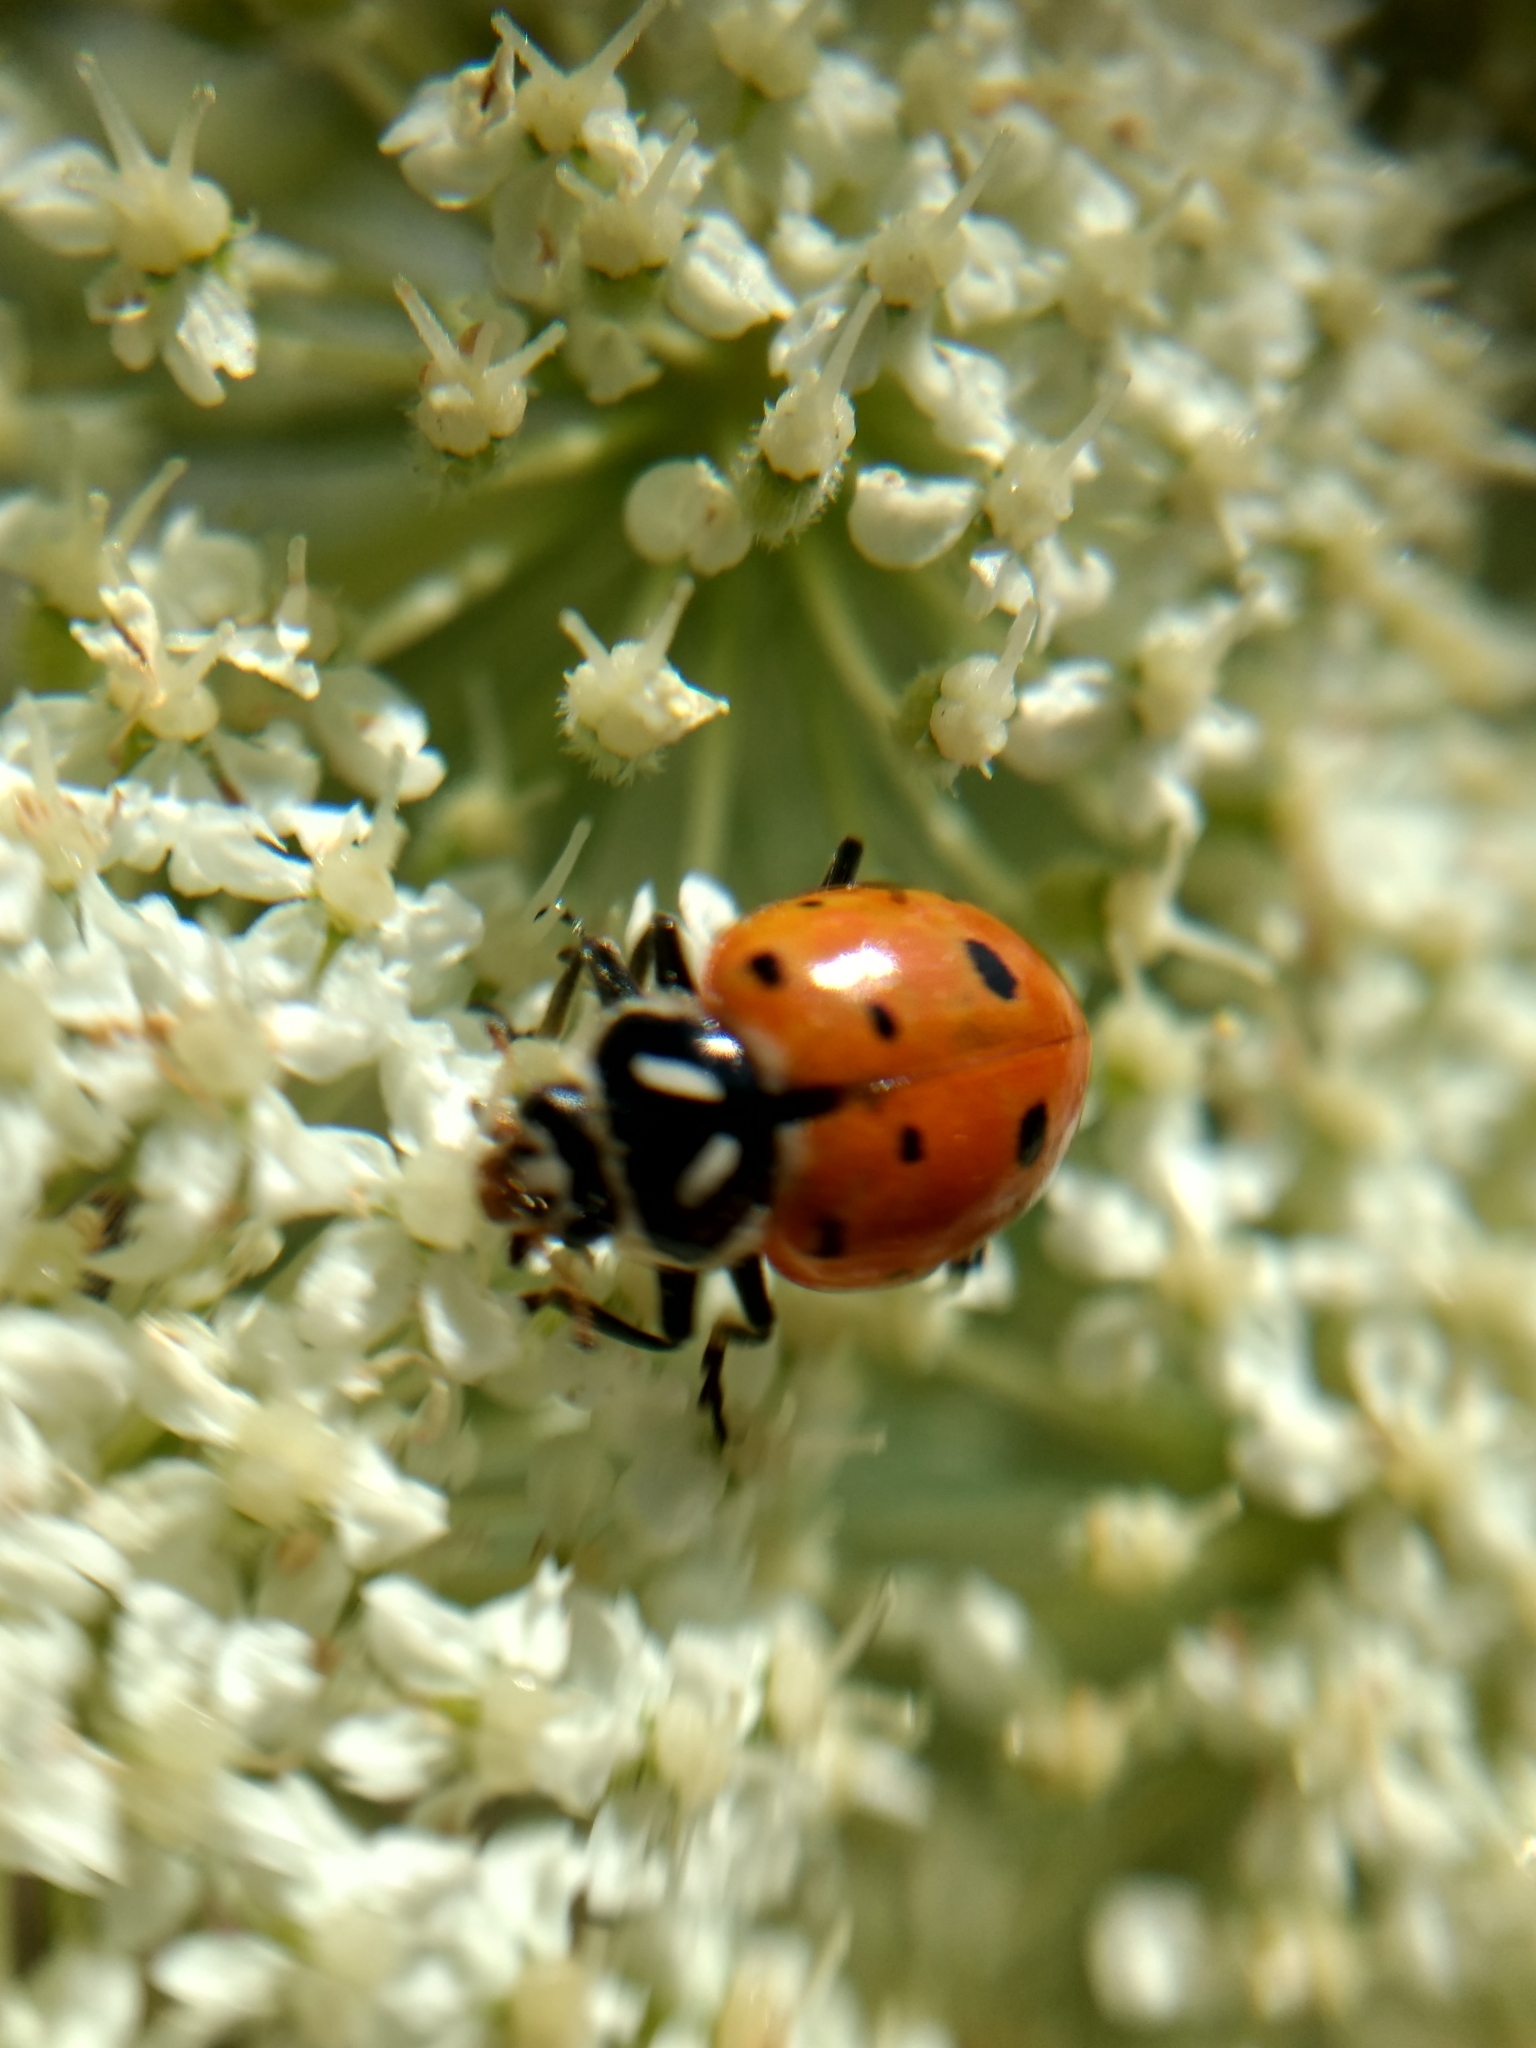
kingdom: Animalia
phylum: Arthropoda
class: Insecta
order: Coleoptera
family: Coccinellidae
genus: Hippodamia
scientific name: Hippodamia convergens
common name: Convergent lady beetle
